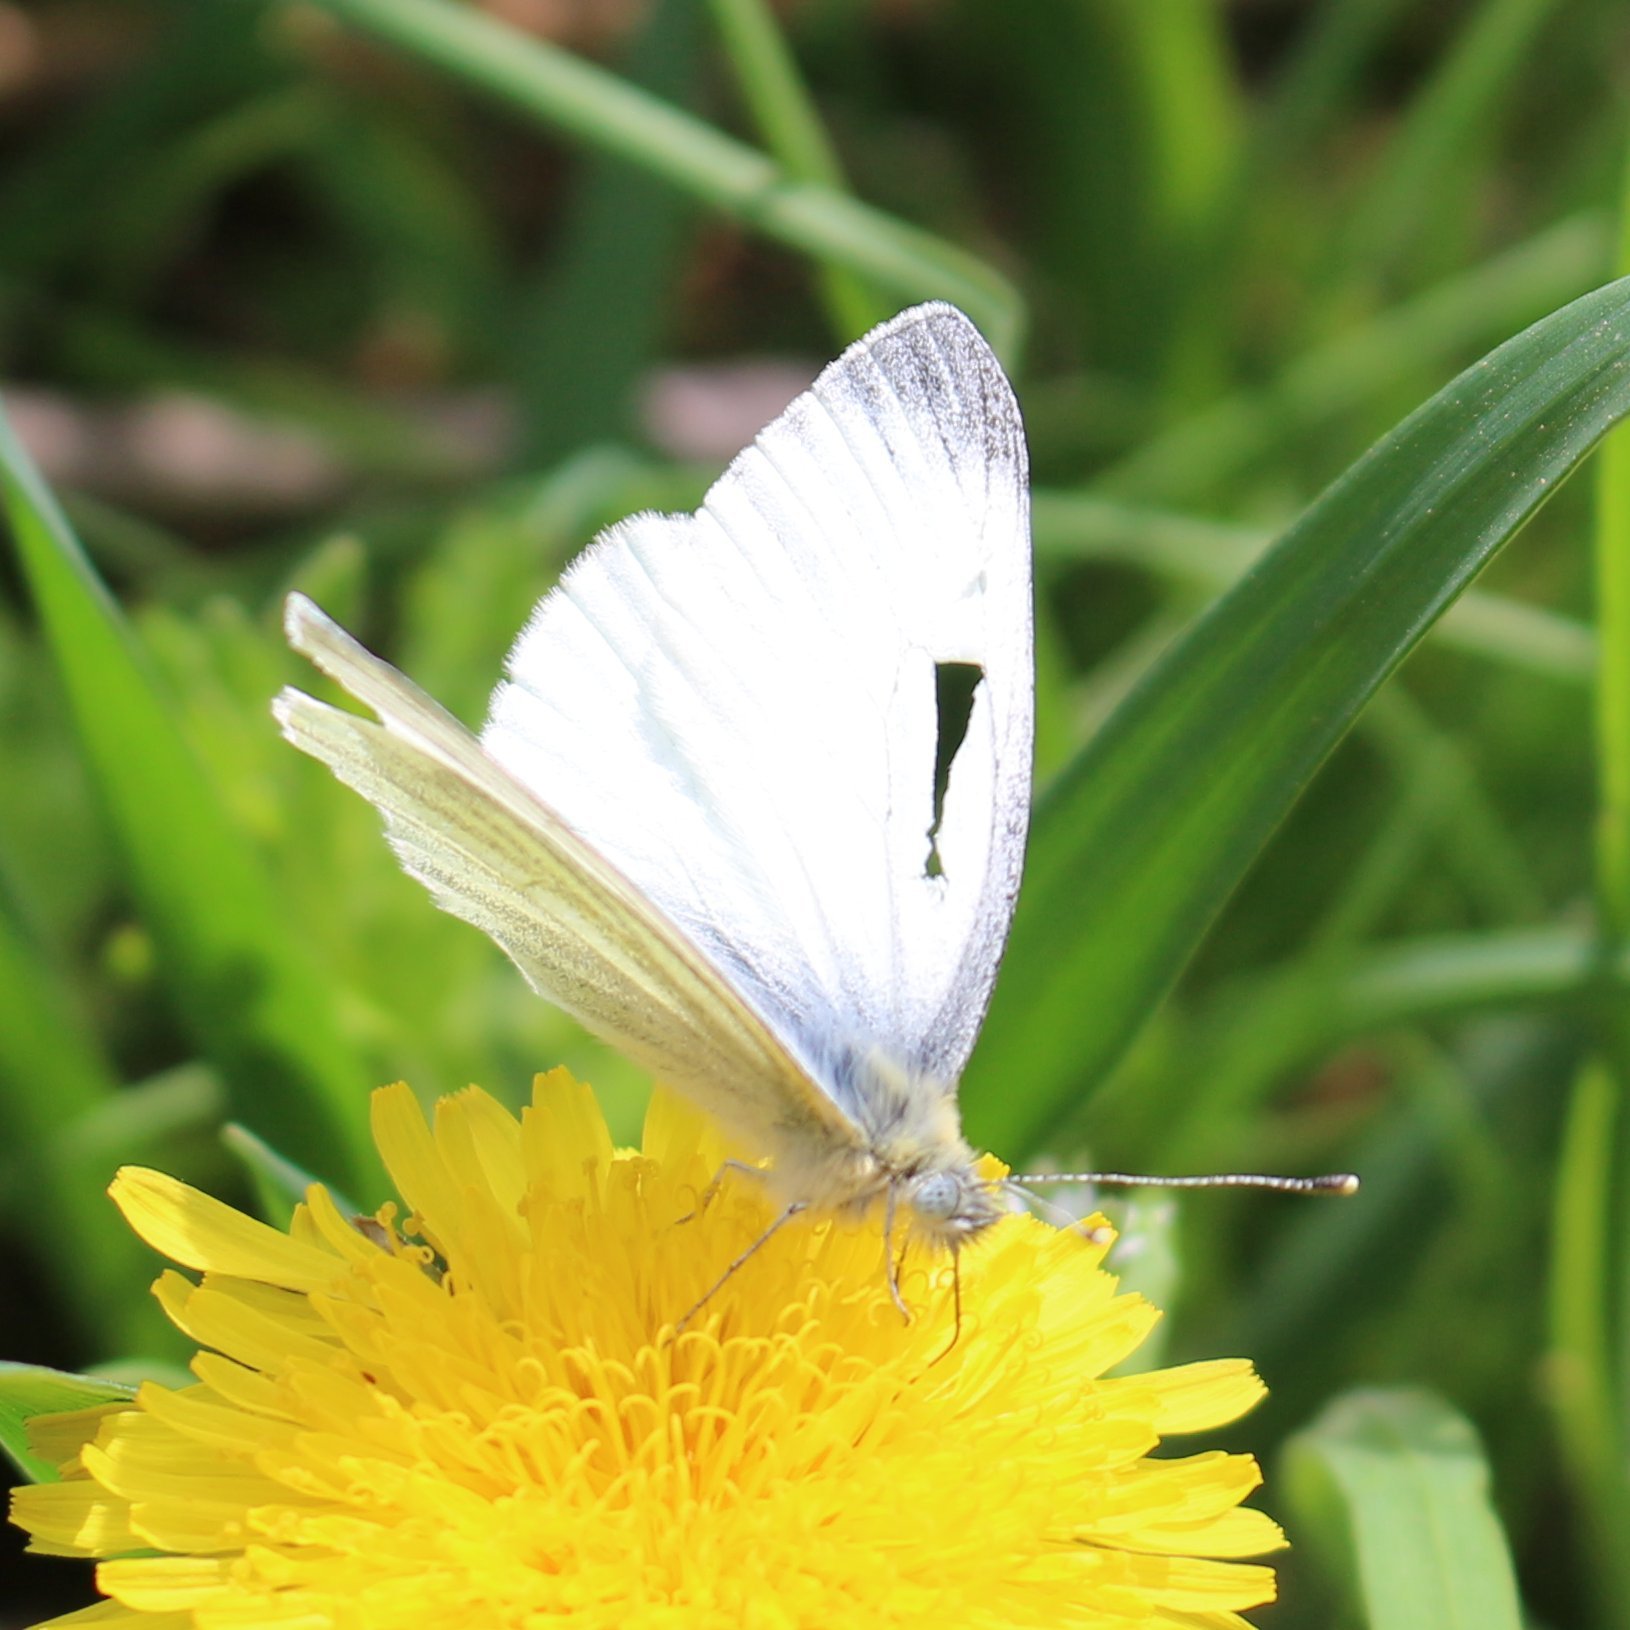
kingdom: Animalia
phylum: Arthropoda
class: Insecta
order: Lepidoptera
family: Pieridae
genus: Pieris
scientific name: Pieris napi
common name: Green-veined white
